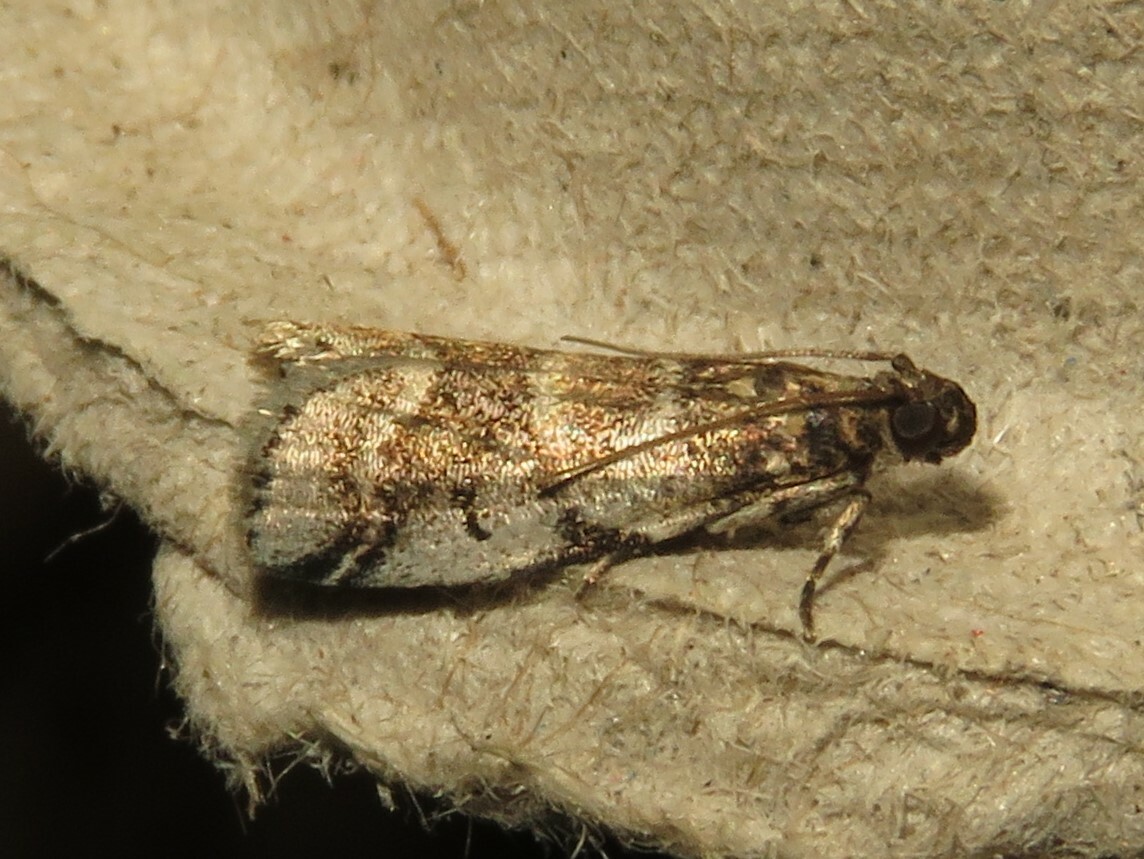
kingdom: Animalia
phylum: Arthropoda
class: Insecta
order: Lepidoptera
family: Pyralidae
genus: Acrobasis
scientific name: Acrobasis indigenella
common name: Leaf crumpler moth
